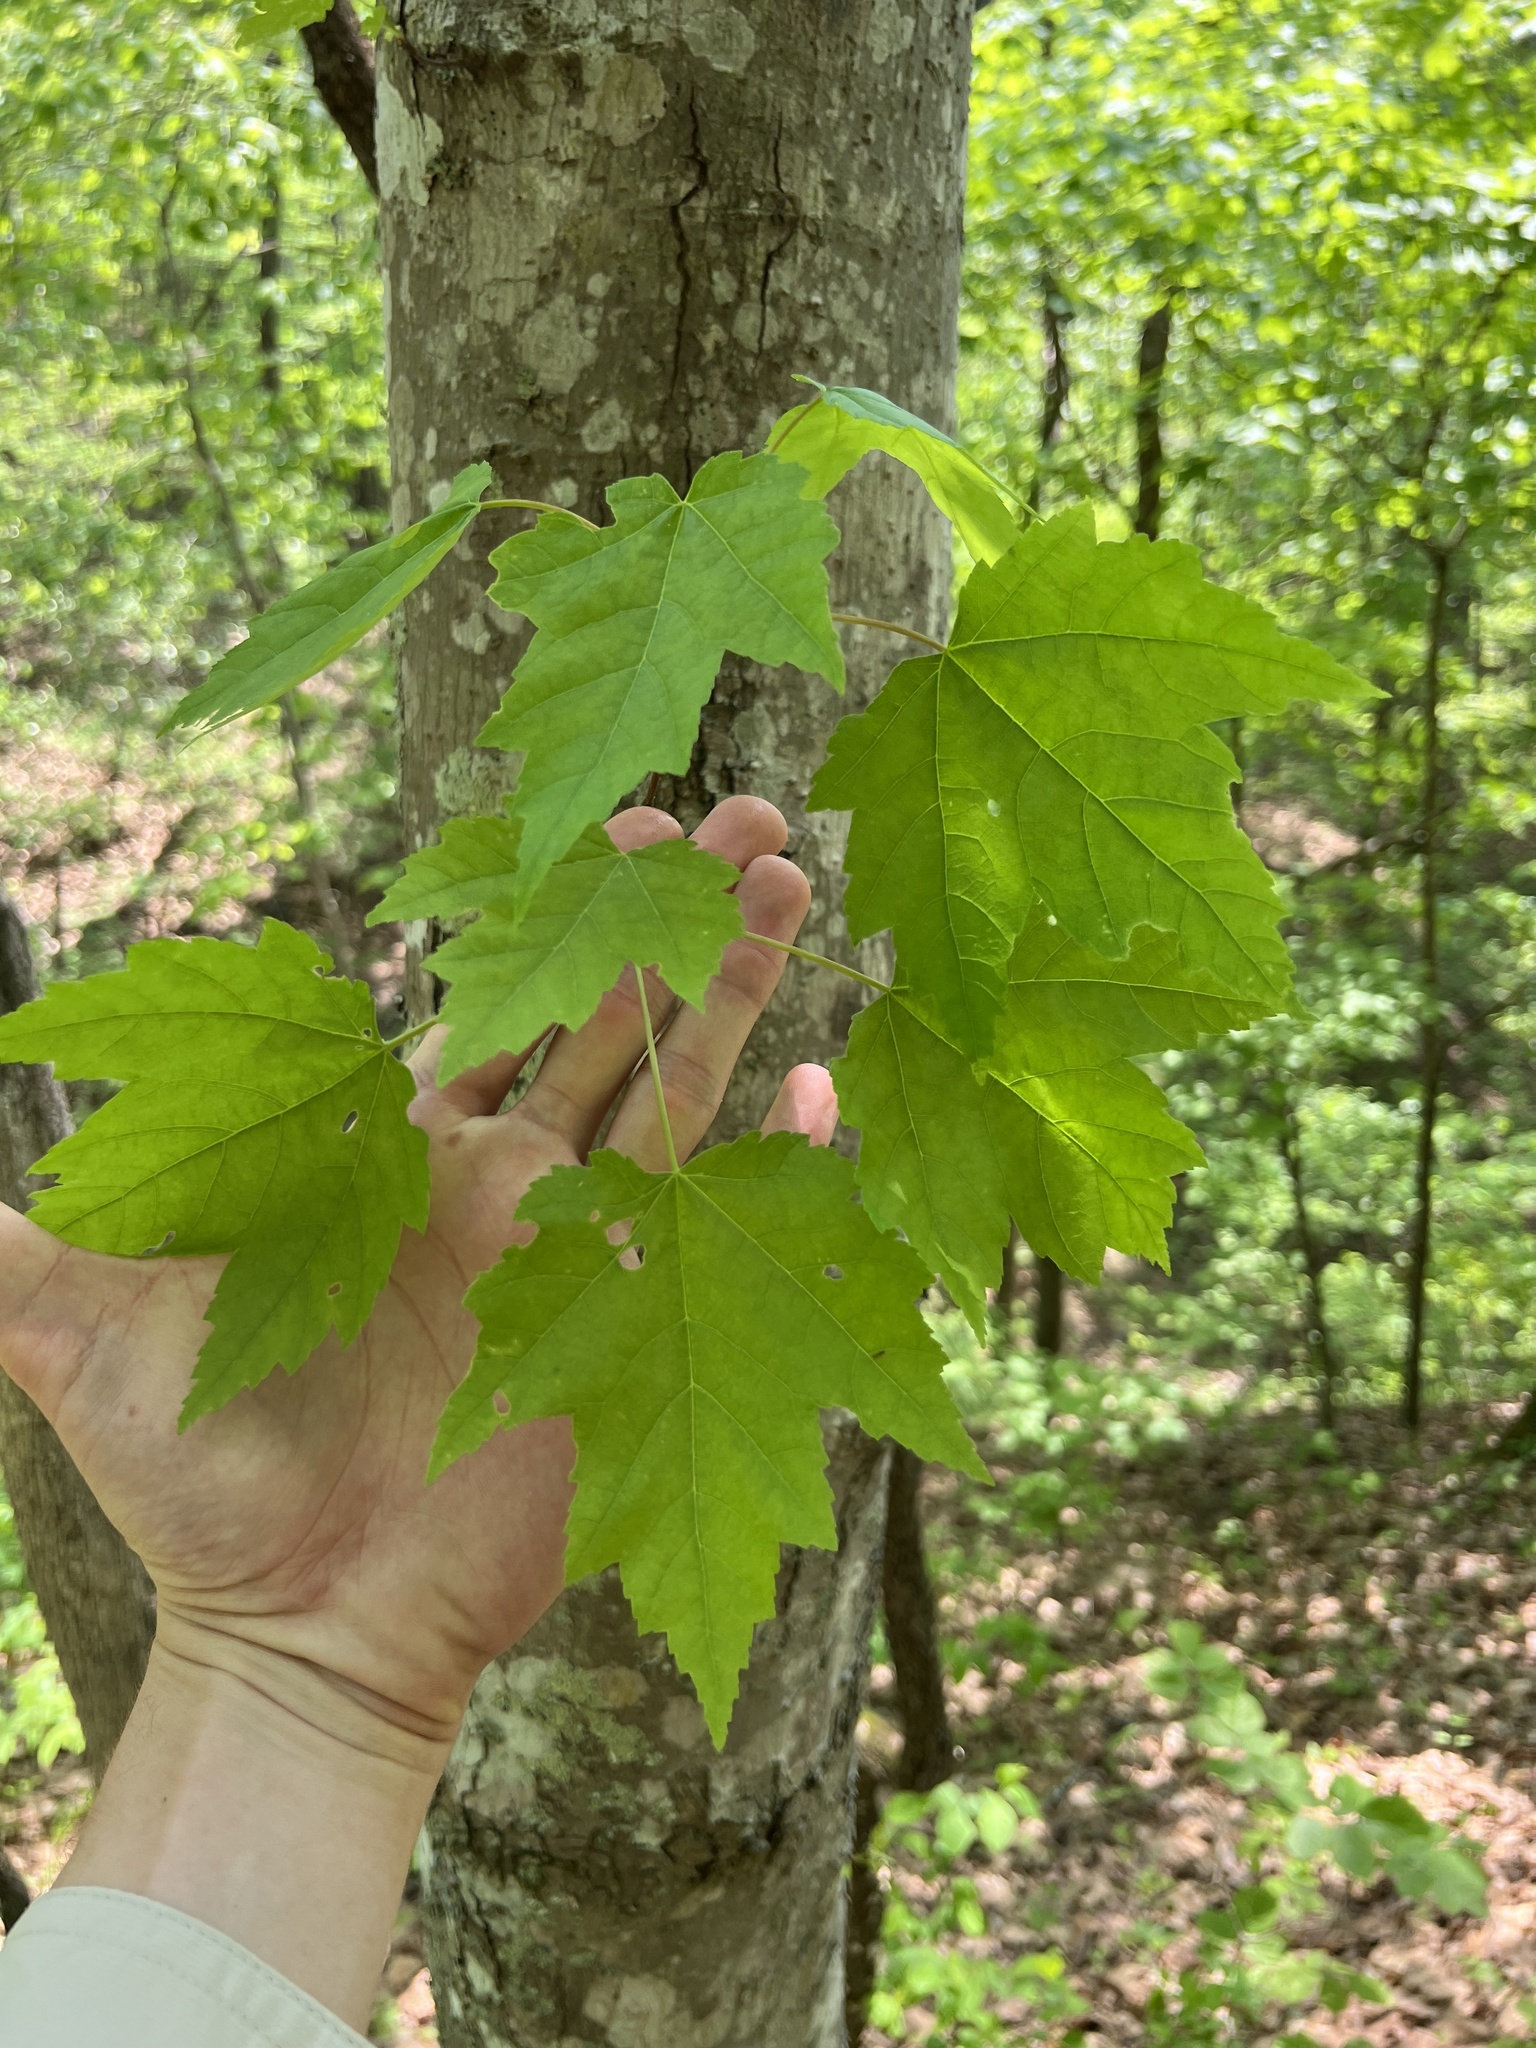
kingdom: Plantae
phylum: Tracheophyta
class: Magnoliopsida
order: Sapindales
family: Sapindaceae
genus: Acer
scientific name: Acer rubrum
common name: Red maple
